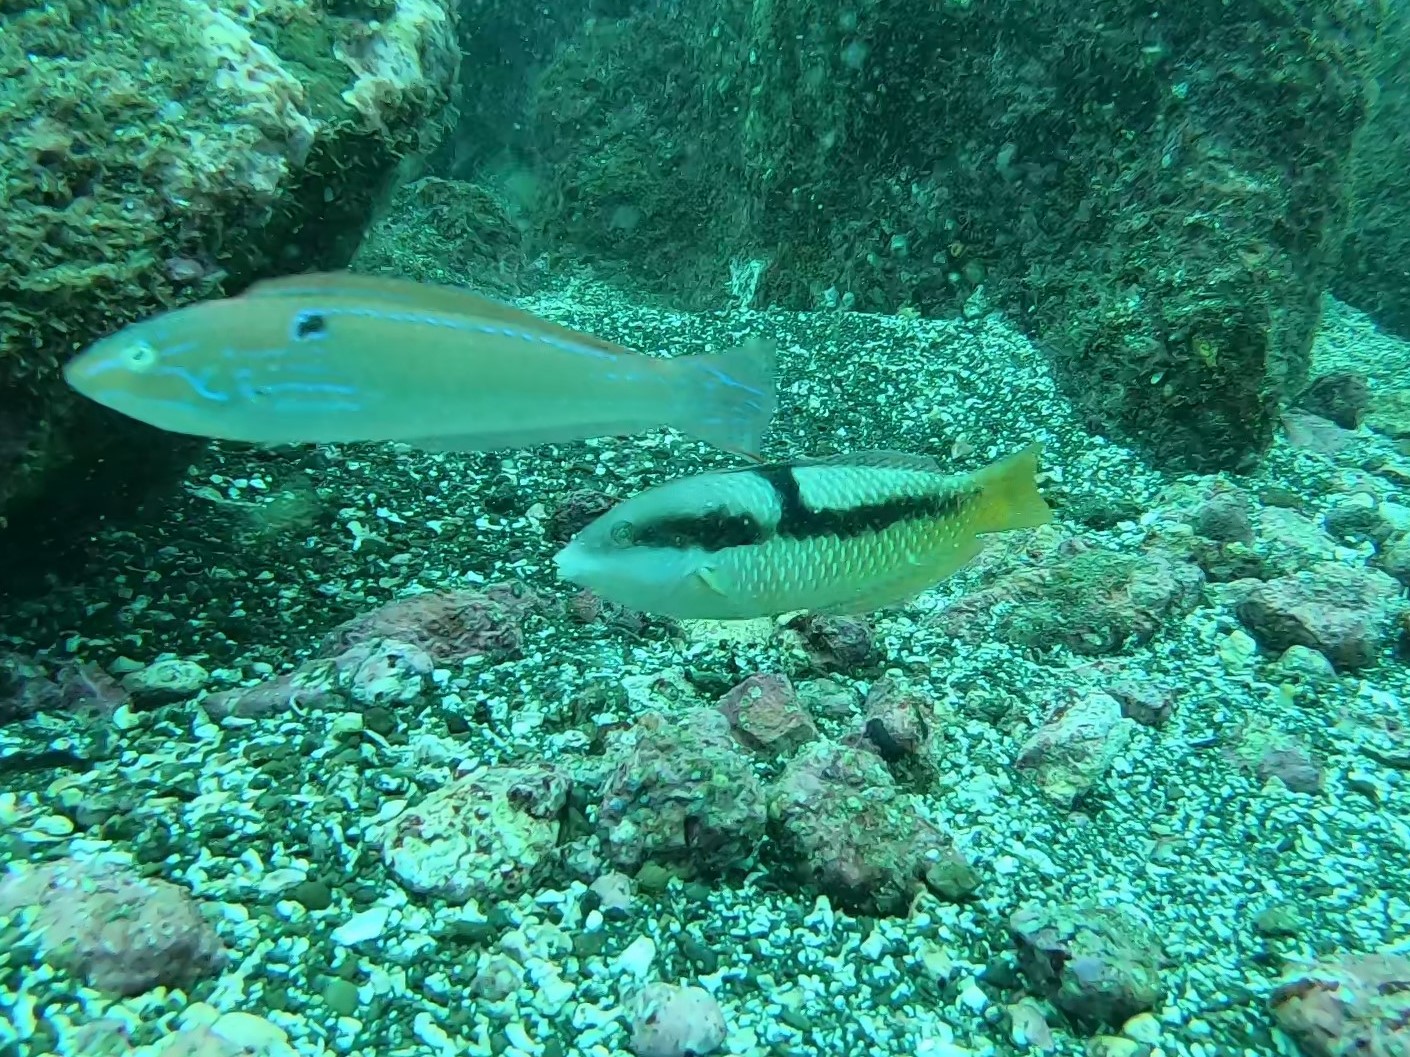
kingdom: Animalia
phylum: Chordata
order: Perciformes
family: Labridae
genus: Halichoeres
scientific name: Halichoeres nicholsi
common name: Spinster wrasse
